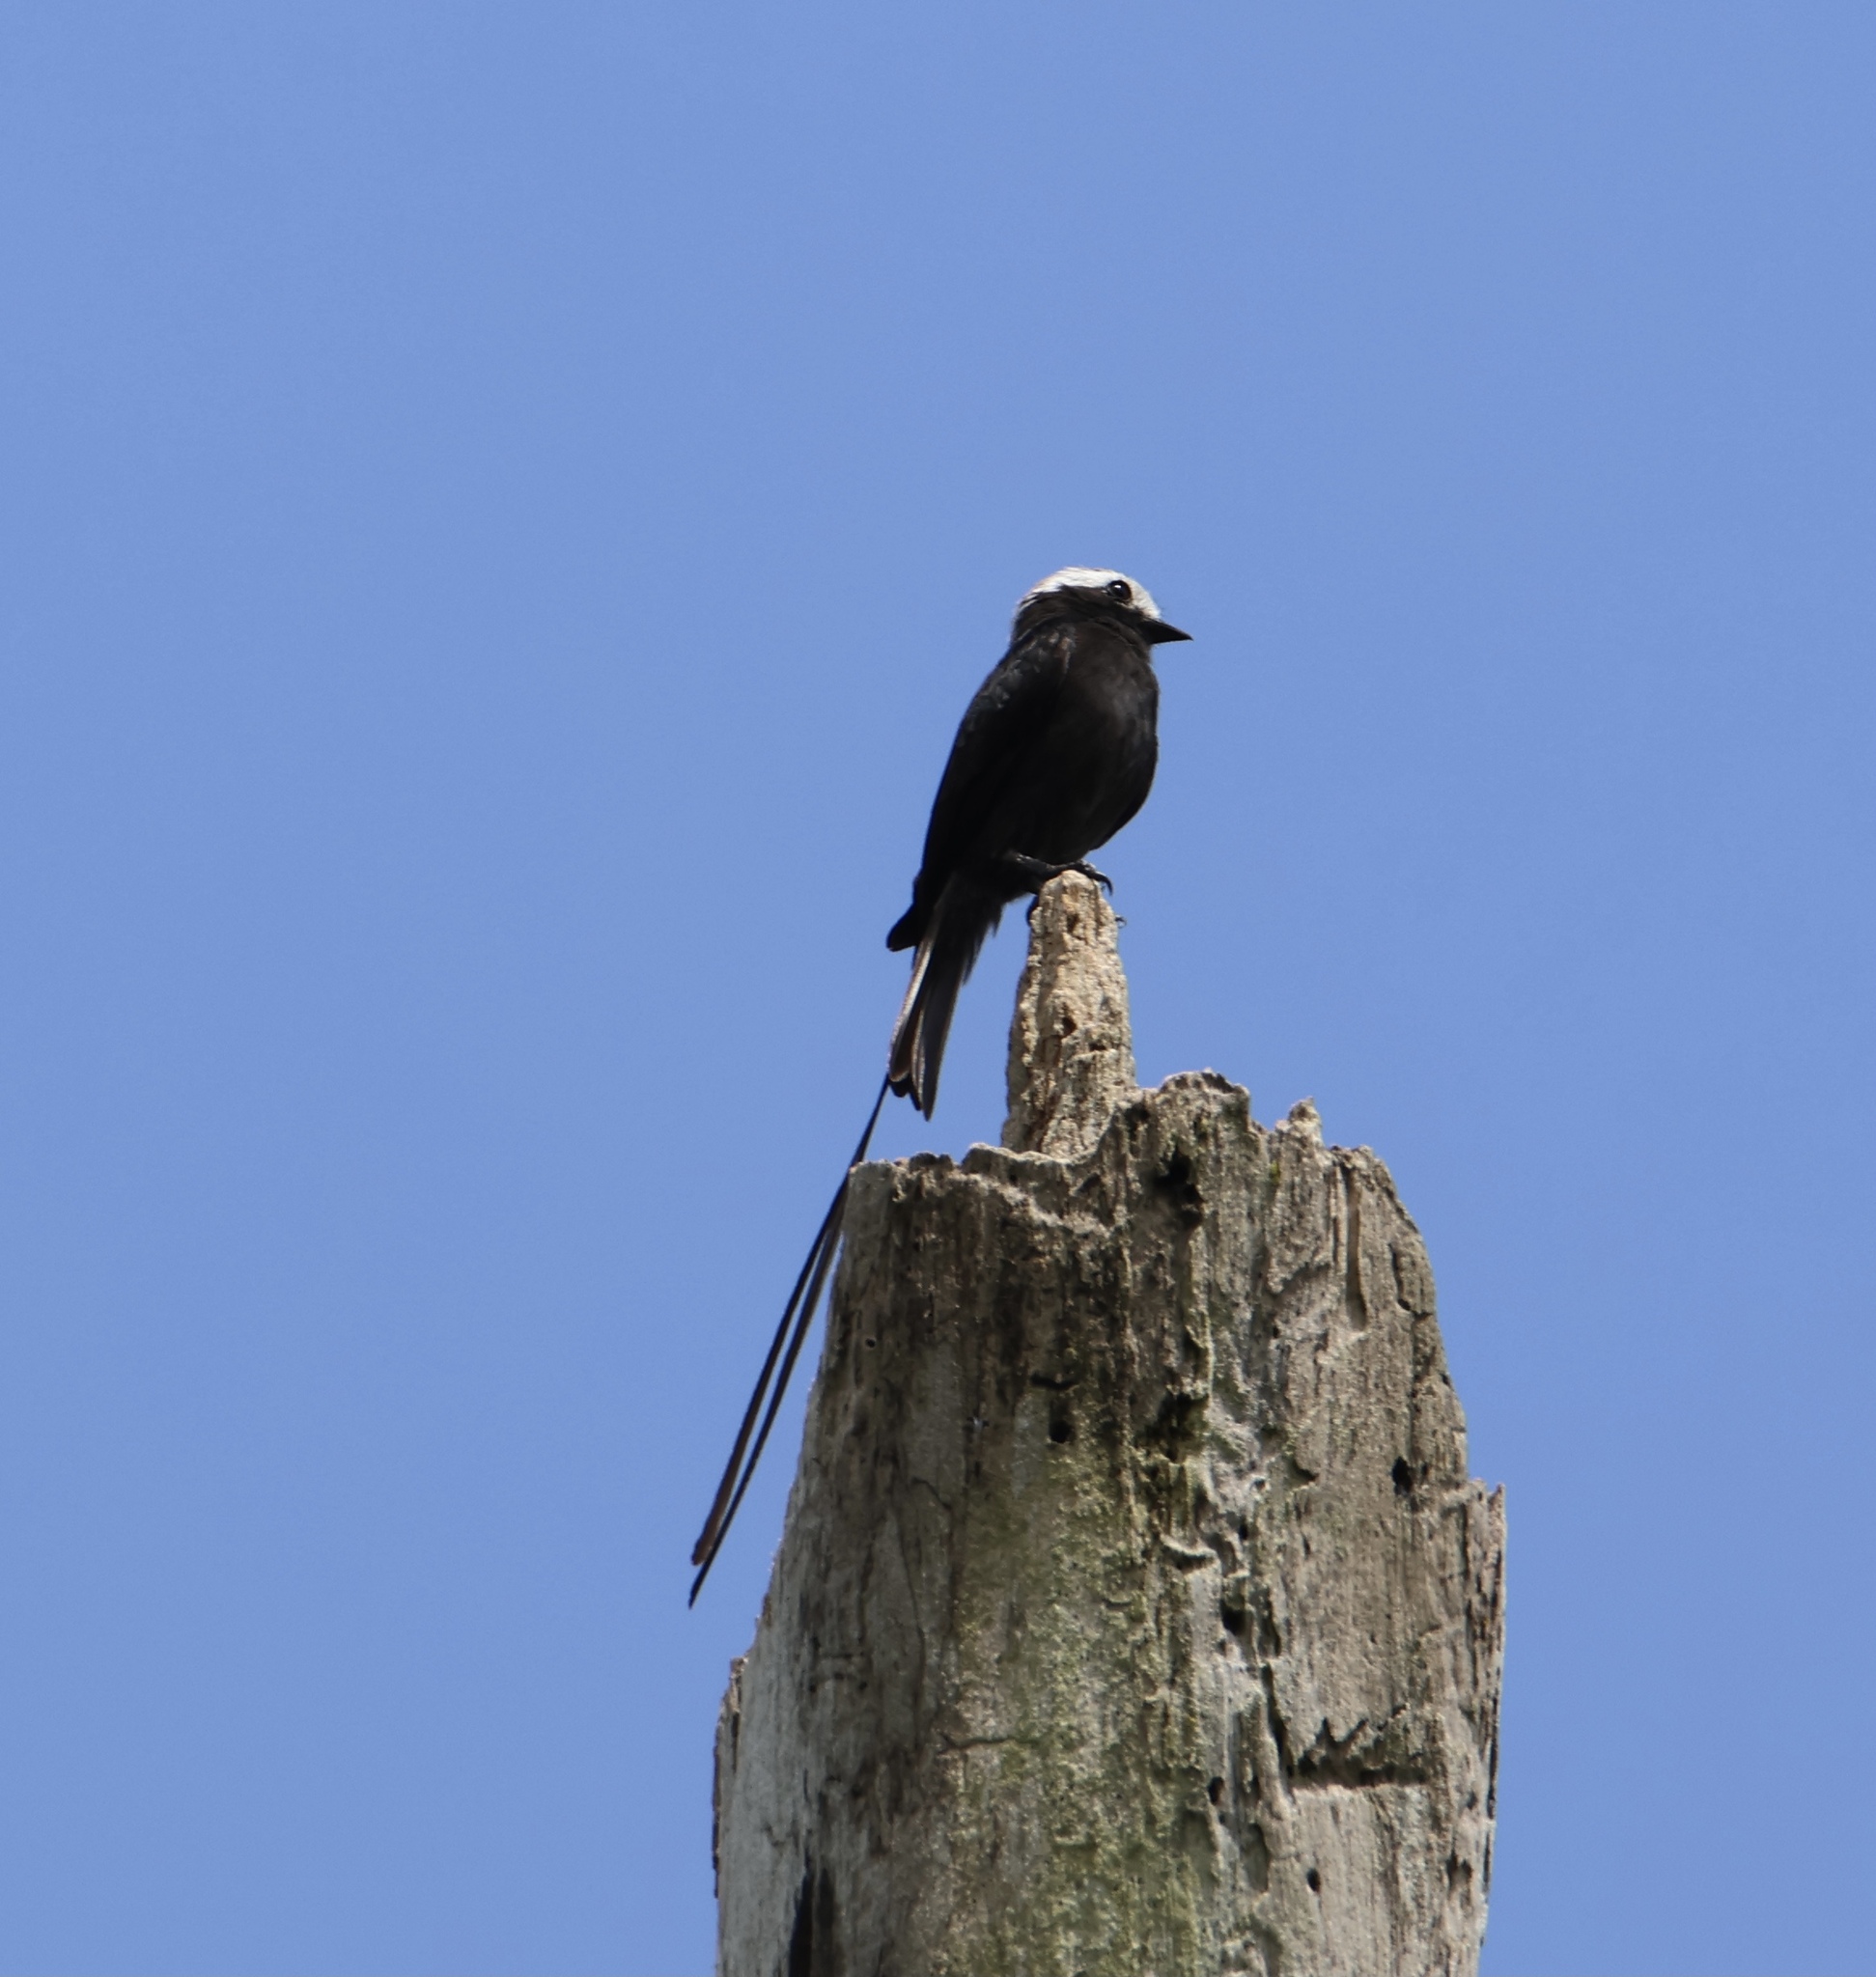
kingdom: Animalia
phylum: Chordata
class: Aves
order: Passeriformes
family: Tyrannidae
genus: Colonia
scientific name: Colonia colonus
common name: Long-tailed tyrant
